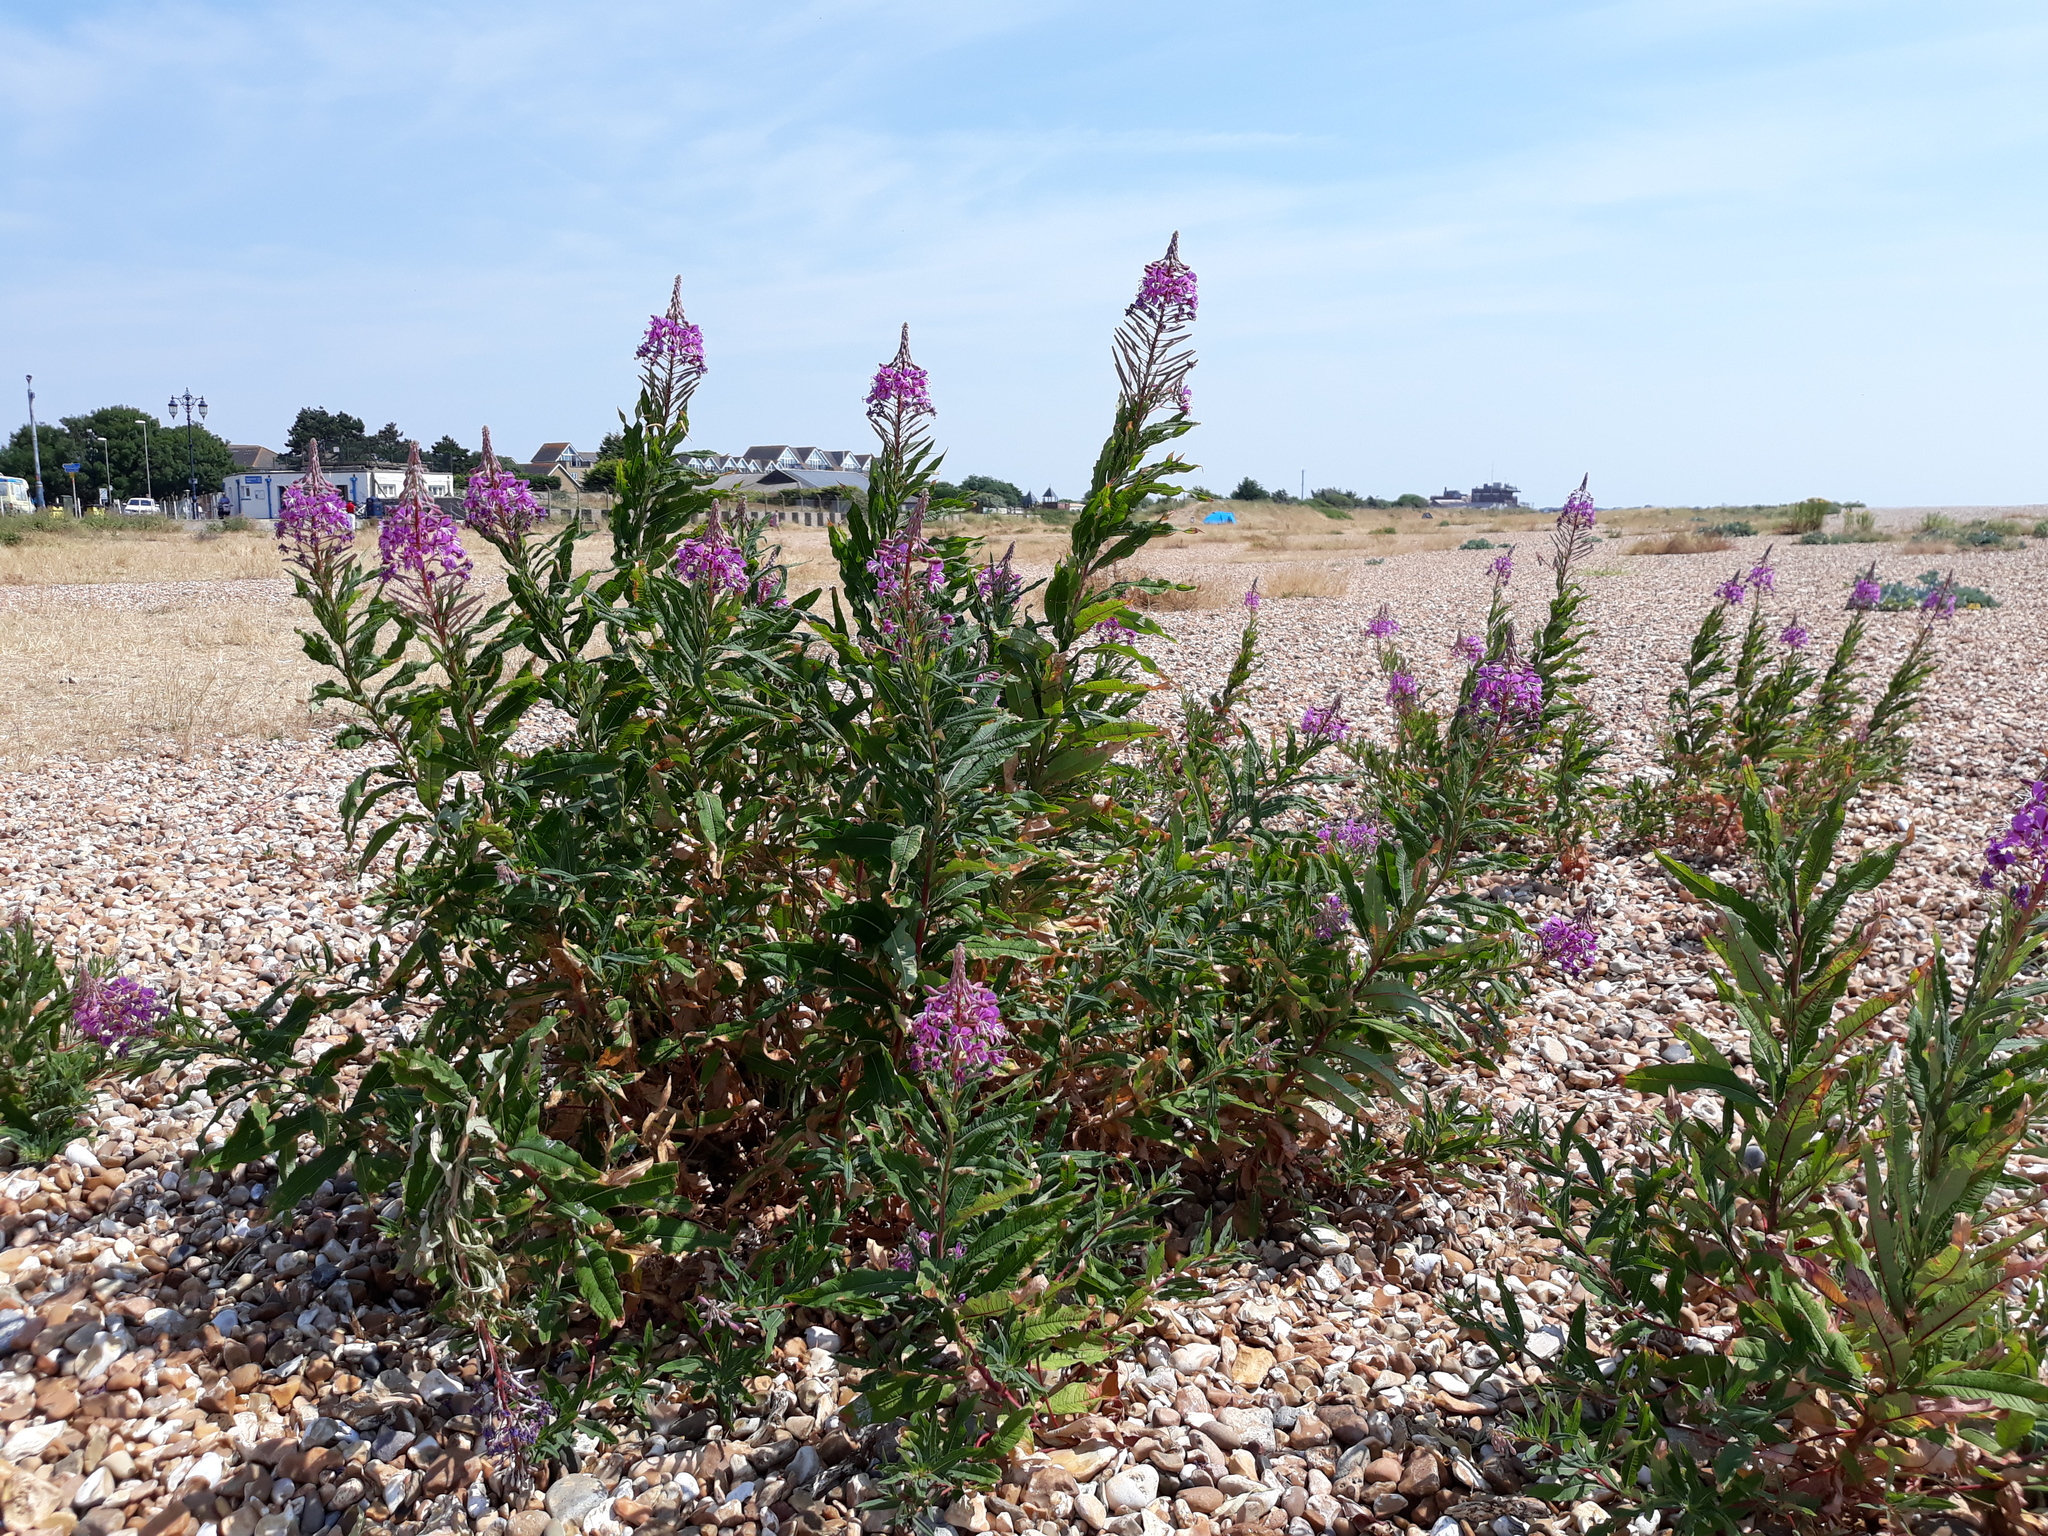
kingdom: Plantae
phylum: Tracheophyta
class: Magnoliopsida
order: Myrtales
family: Onagraceae
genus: Chamaenerion
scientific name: Chamaenerion angustifolium
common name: Fireweed
